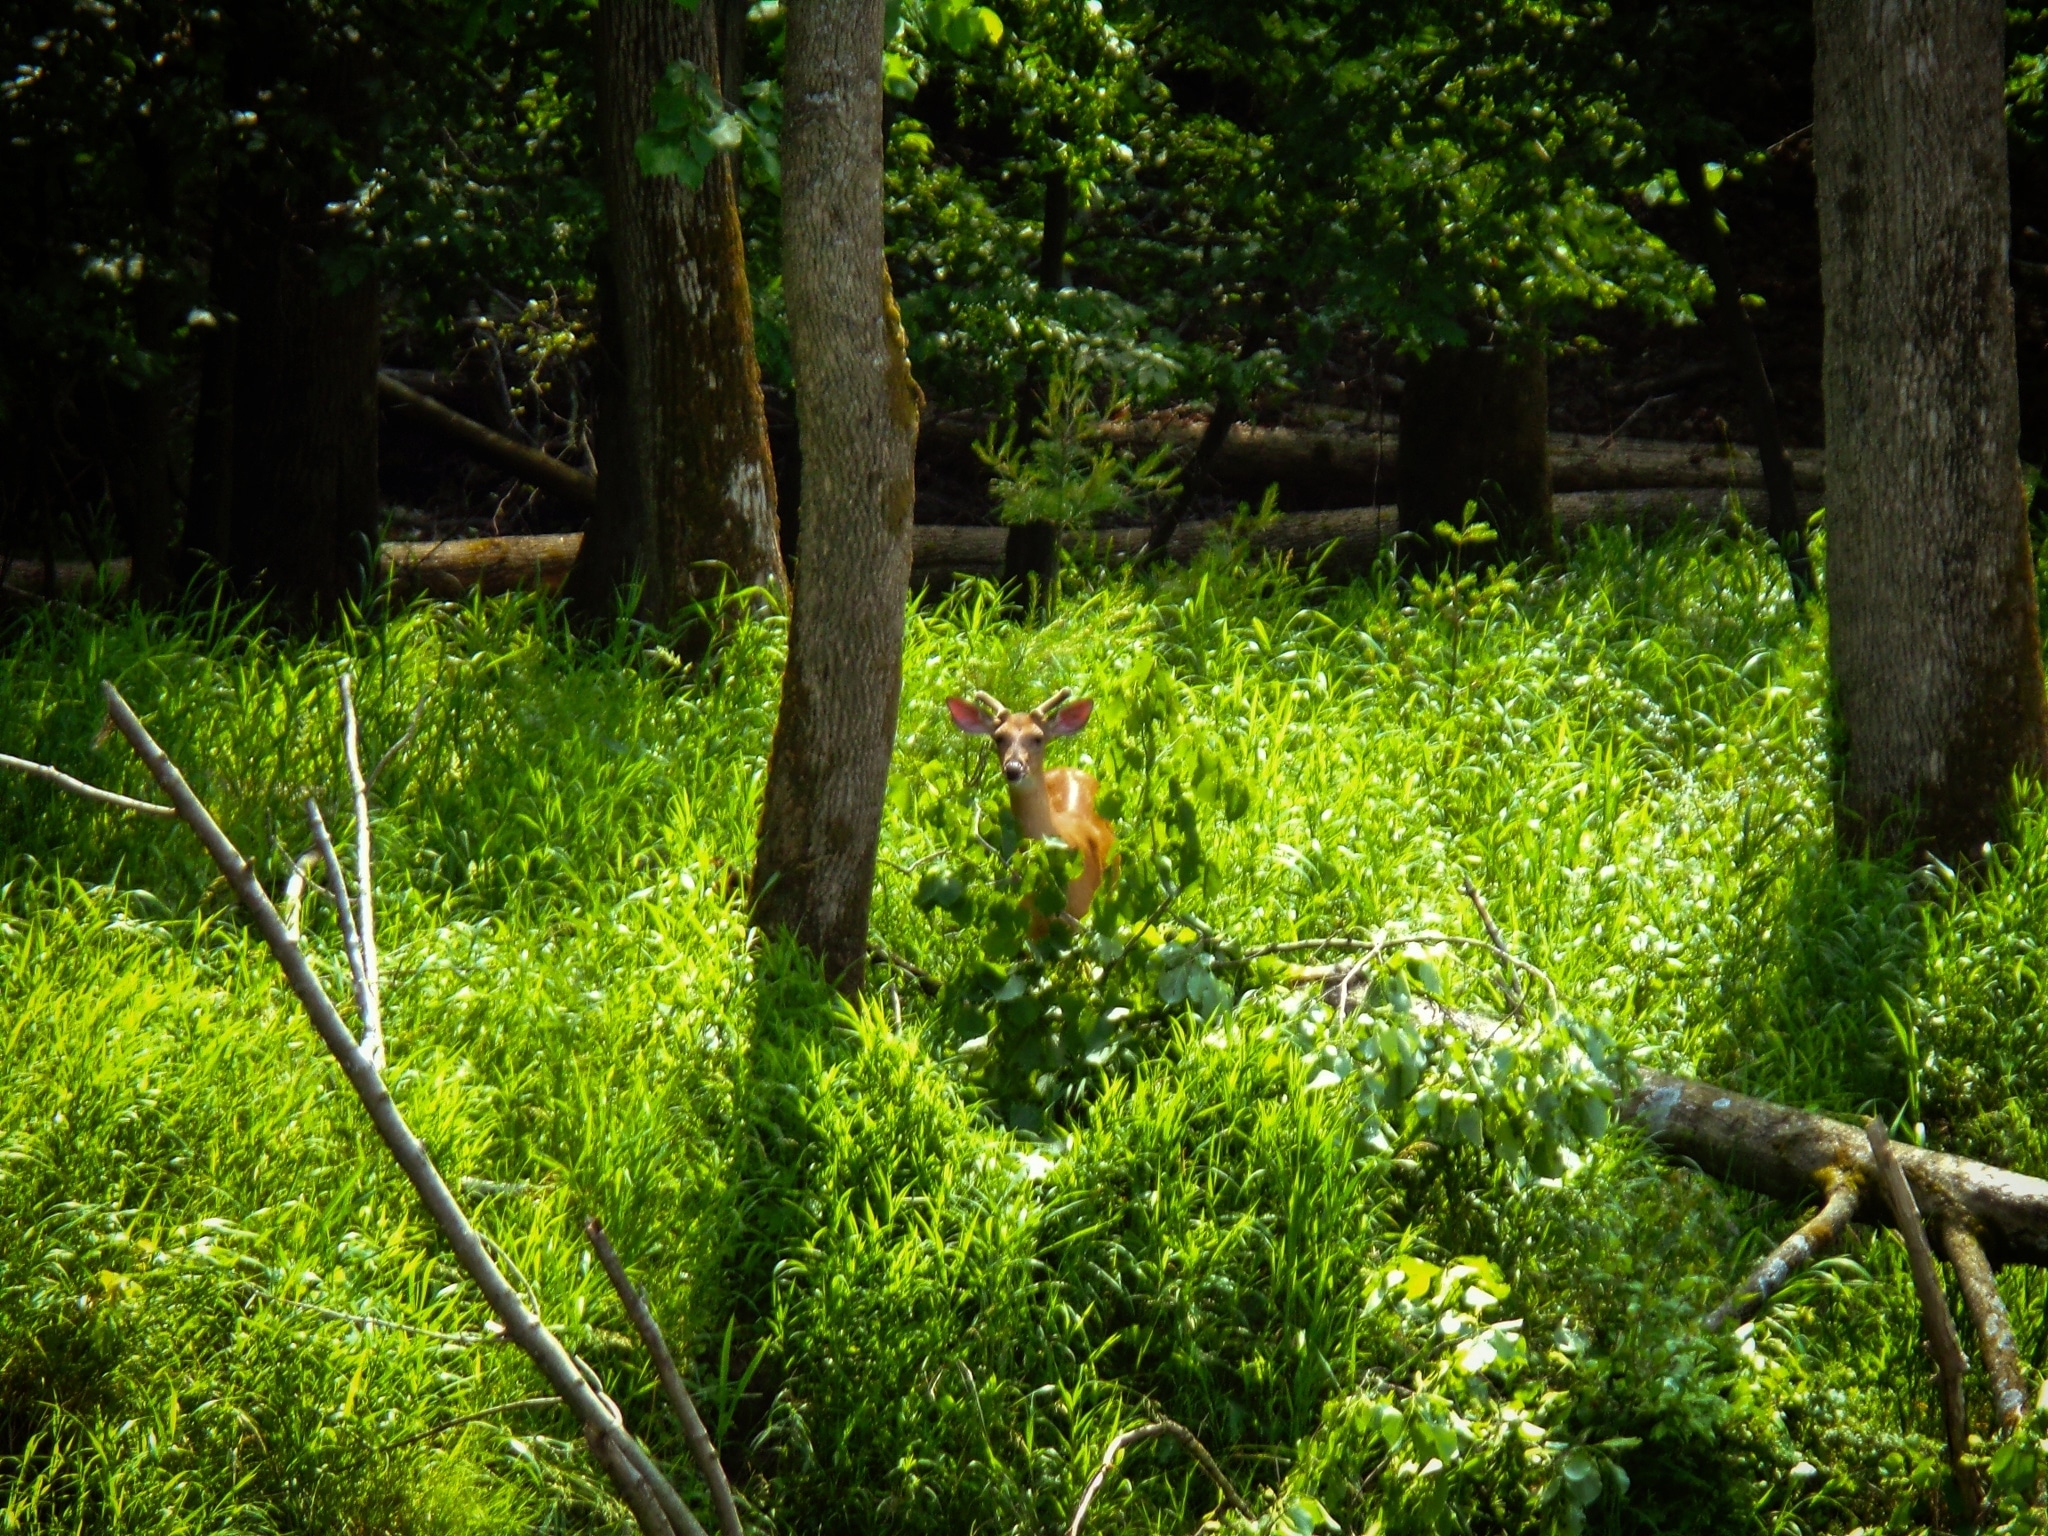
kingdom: Animalia
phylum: Chordata
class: Mammalia
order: Artiodactyla
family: Cervidae
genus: Odocoileus
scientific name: Odocoileus virginianus
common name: White-tailed deer
